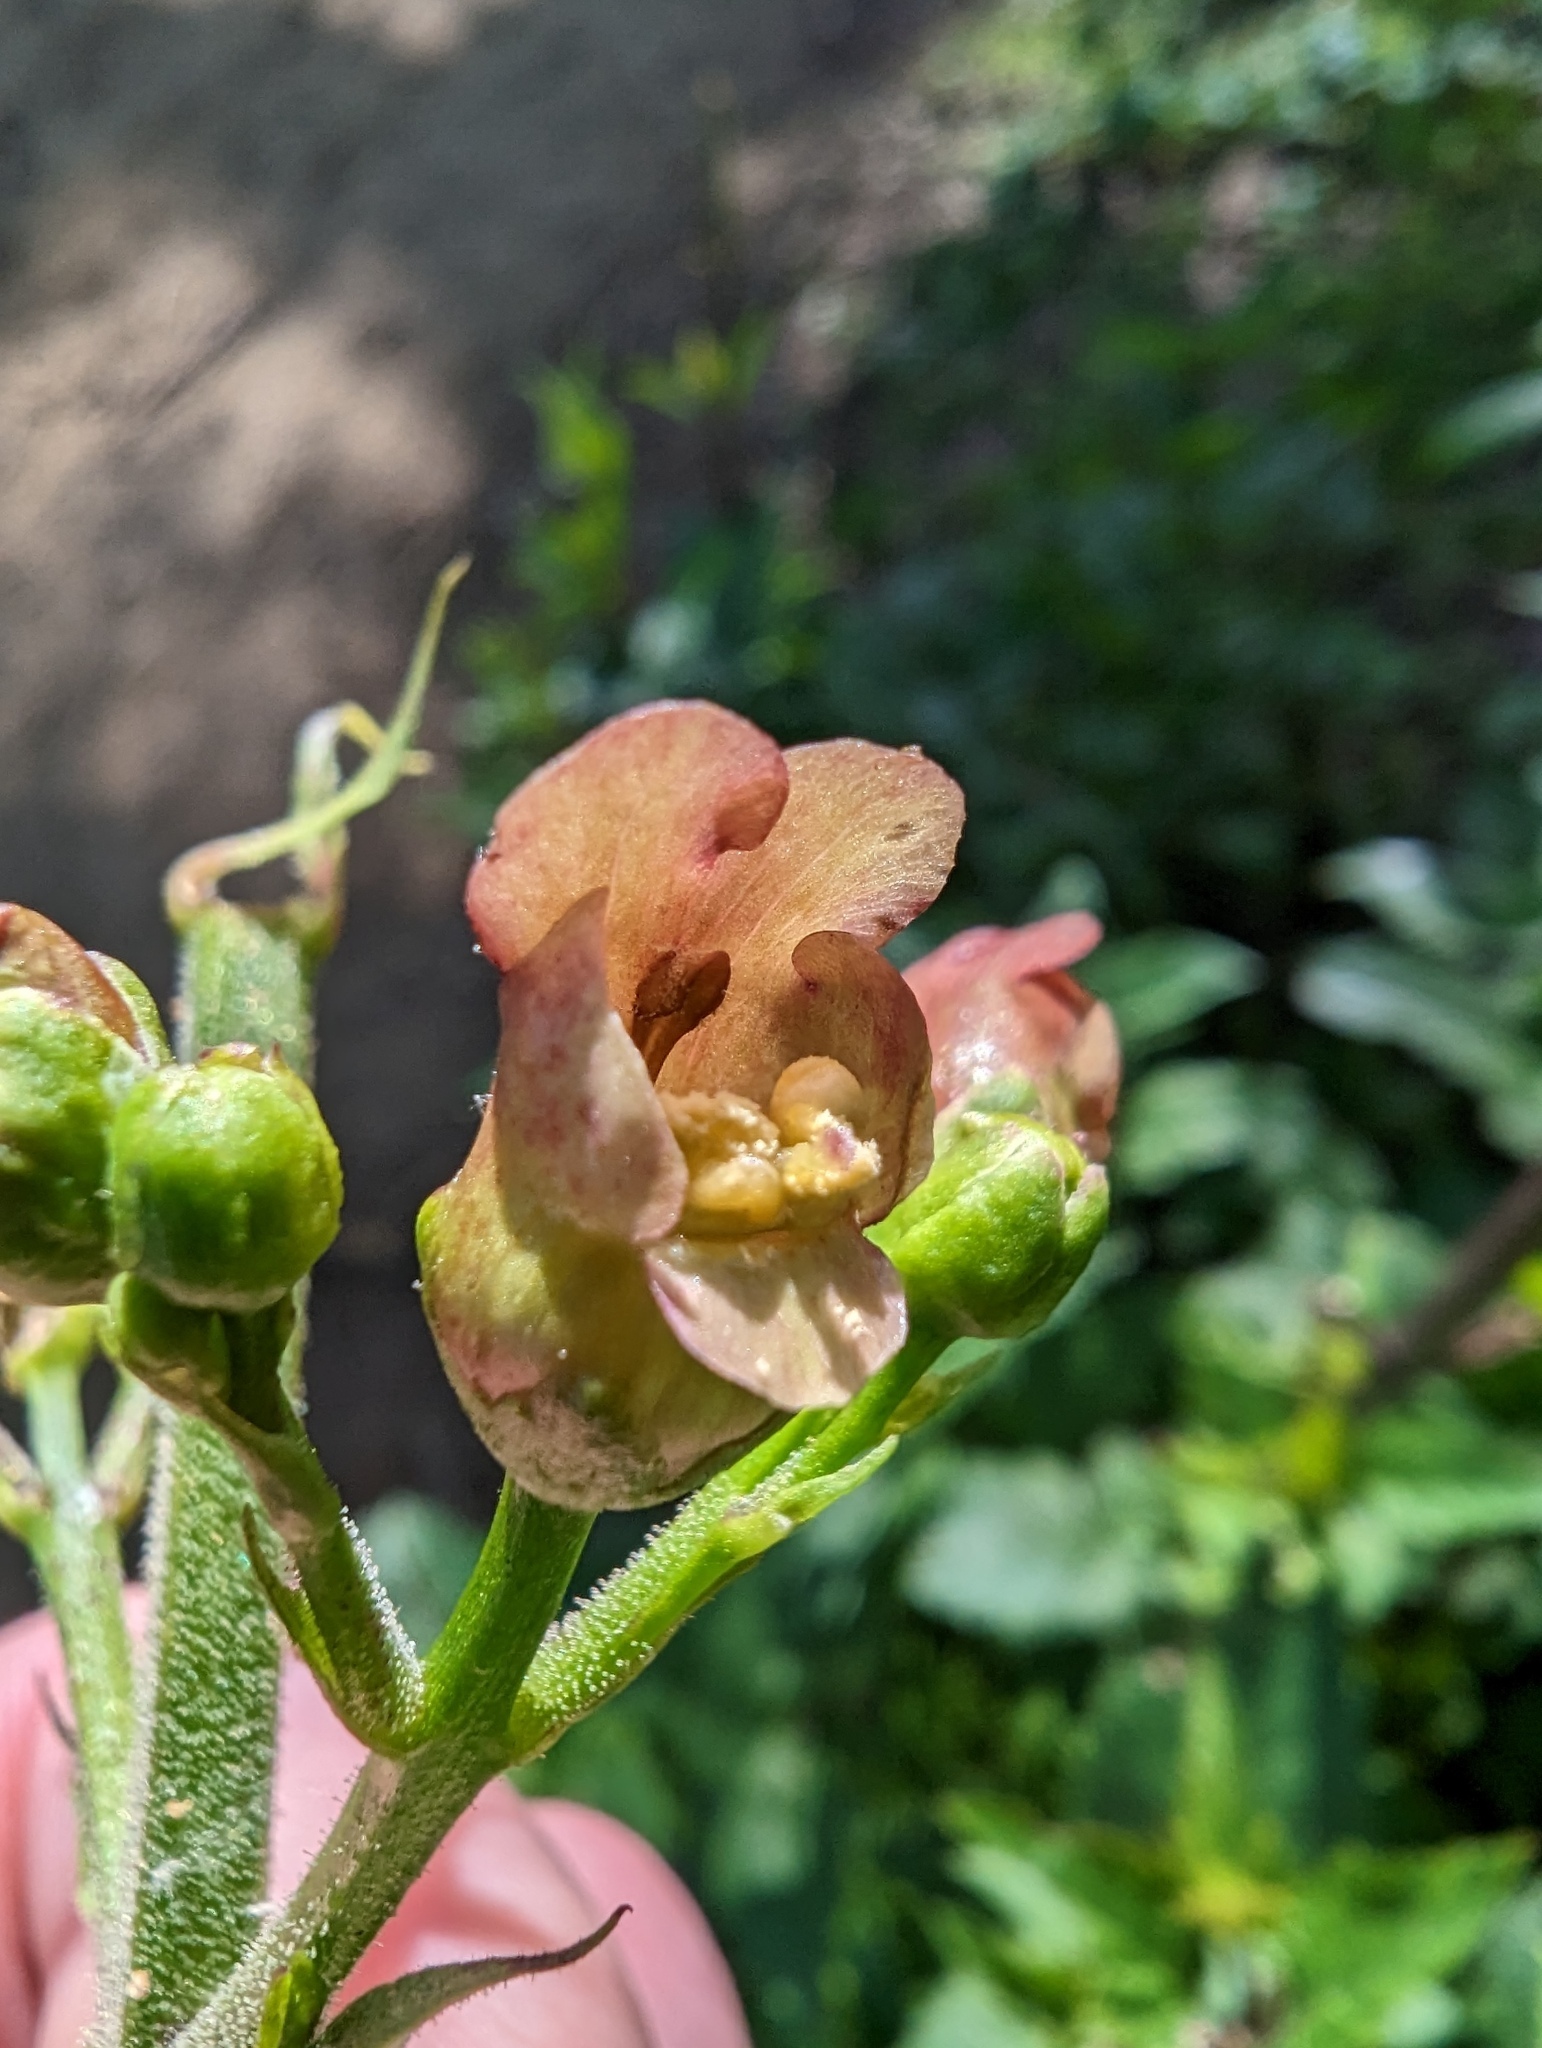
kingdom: Plantae
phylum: Tracheophyta
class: Magnoliopsida
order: Lamiales
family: Scrophulariaceae
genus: Scrophularia
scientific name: Scrophularia californica
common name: California figwort
